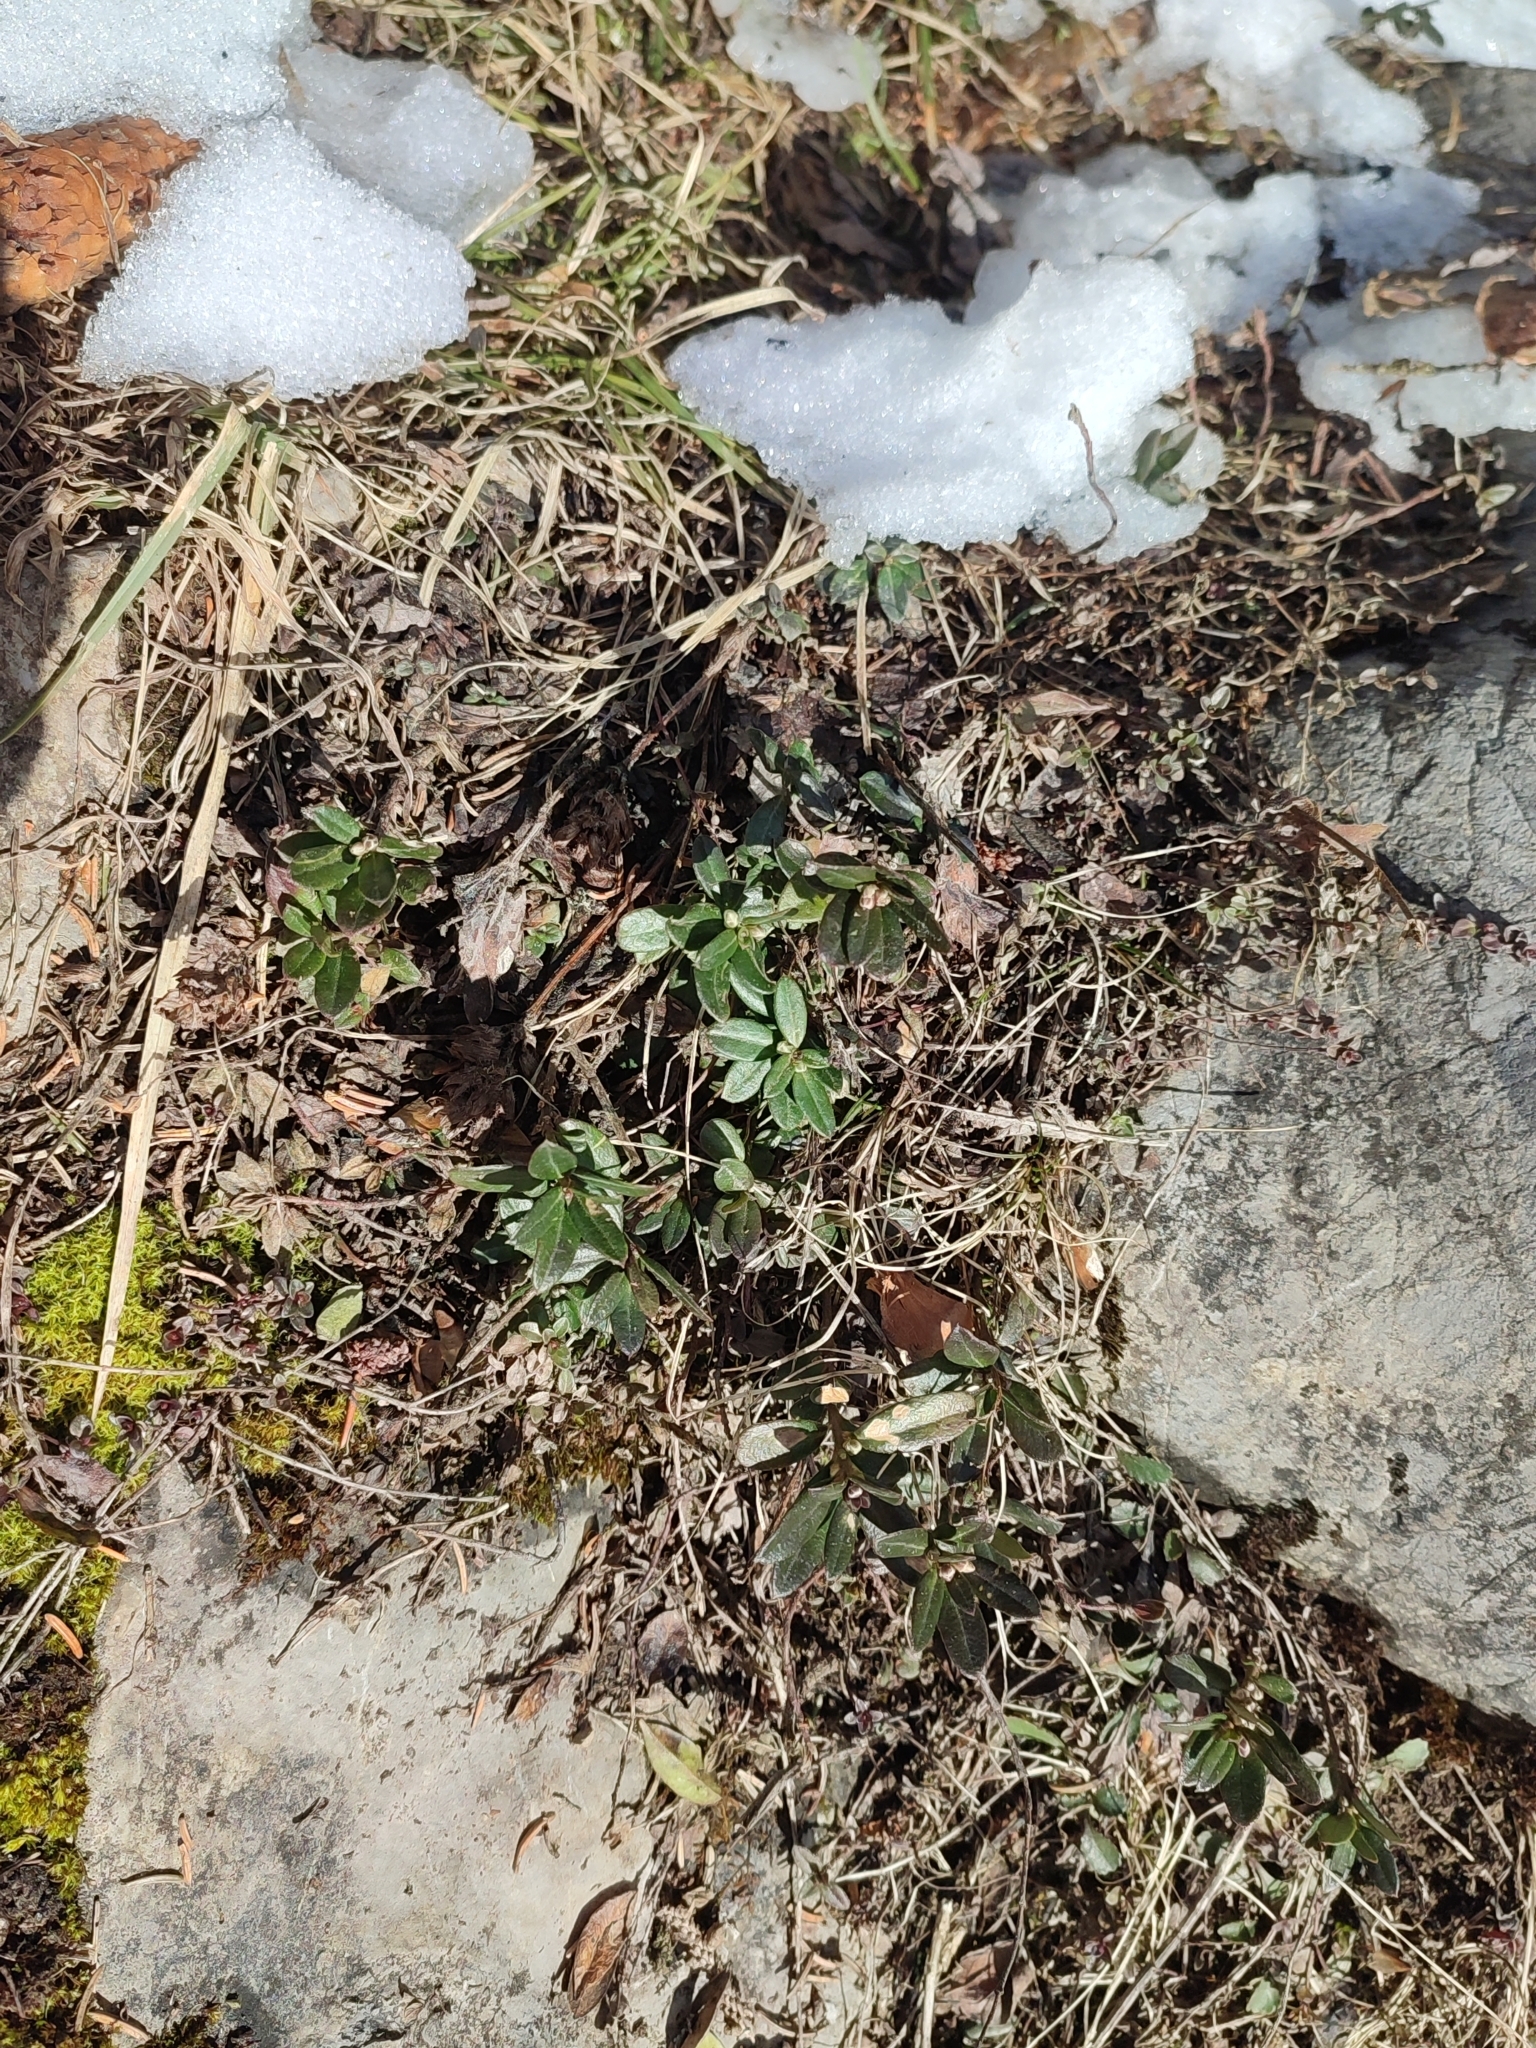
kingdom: Plantae
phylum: Tracheophyta
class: Magnoliopsida
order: Fabales
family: Polygalaceae
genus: Polygaloides
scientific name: Polygaloides chamaebuxus
